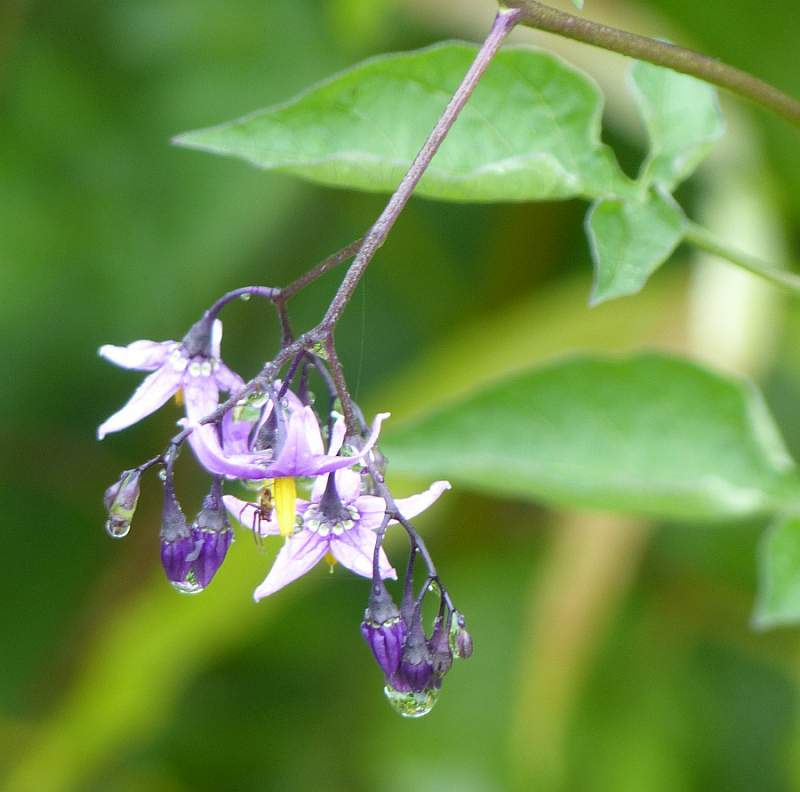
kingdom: Plantae
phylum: Tracheophyta
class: Magnoliopsida
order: Solanales
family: Solanaceae
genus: Solanum
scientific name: Solanum dulcamara
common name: Climbing nightshade
